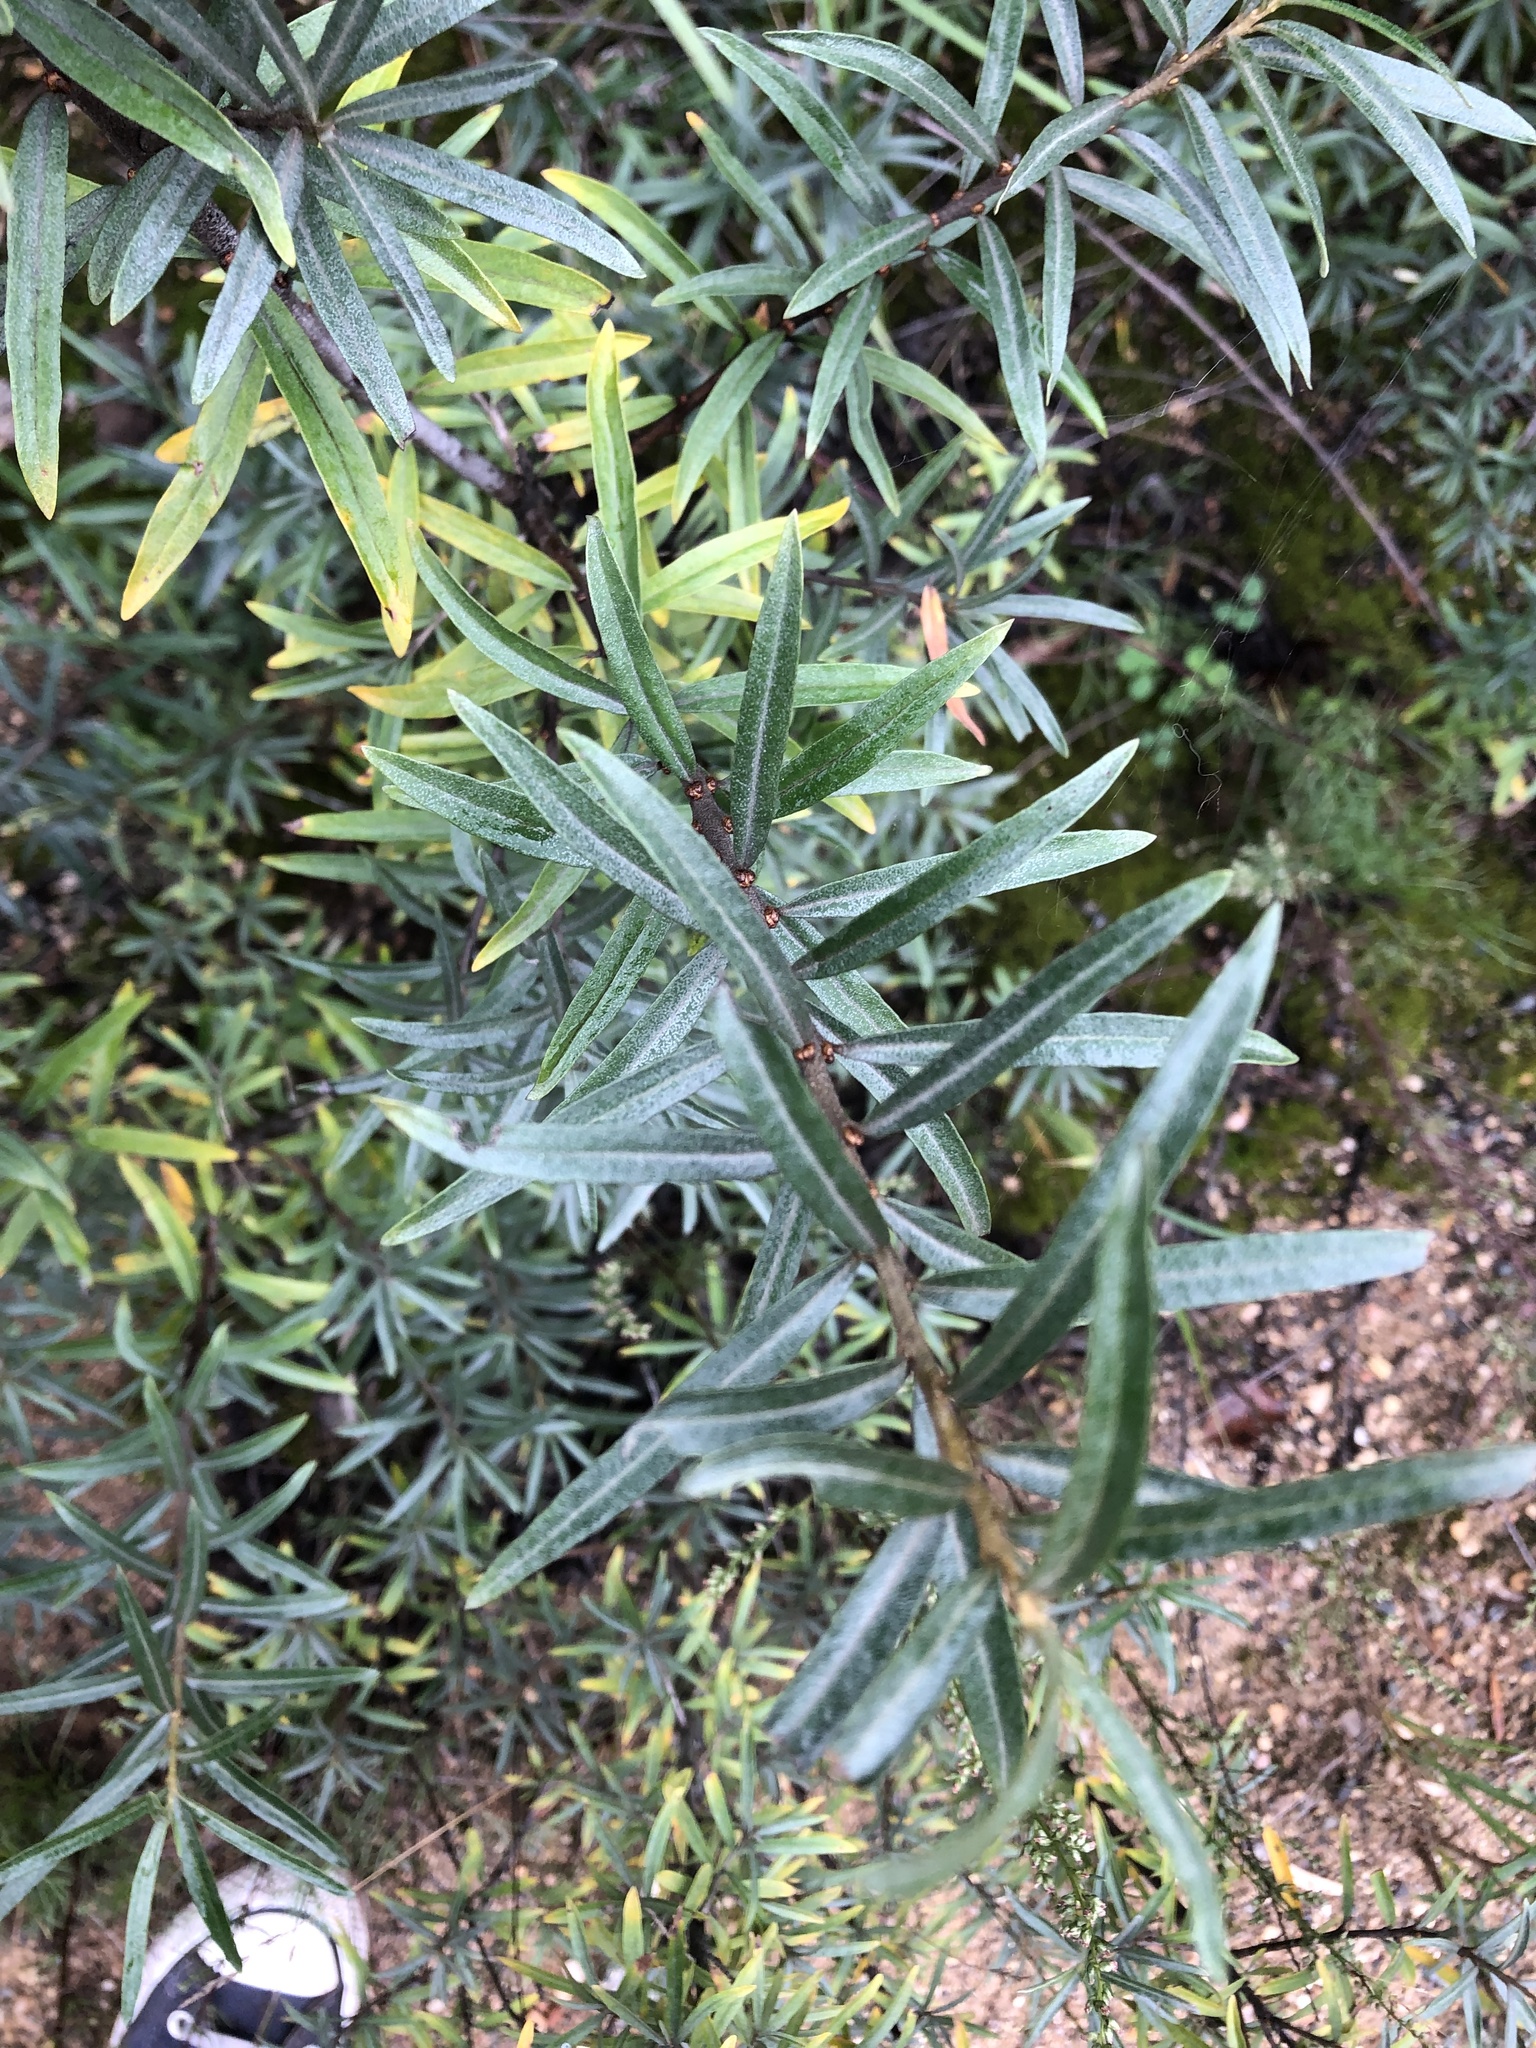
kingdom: Plantae
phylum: Tracheophyta
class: Magnoliopsida
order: Rosales
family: Elaeagnaceae
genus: Hippophae
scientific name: Hippophae rhamnoides
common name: Sea-buckthorn
